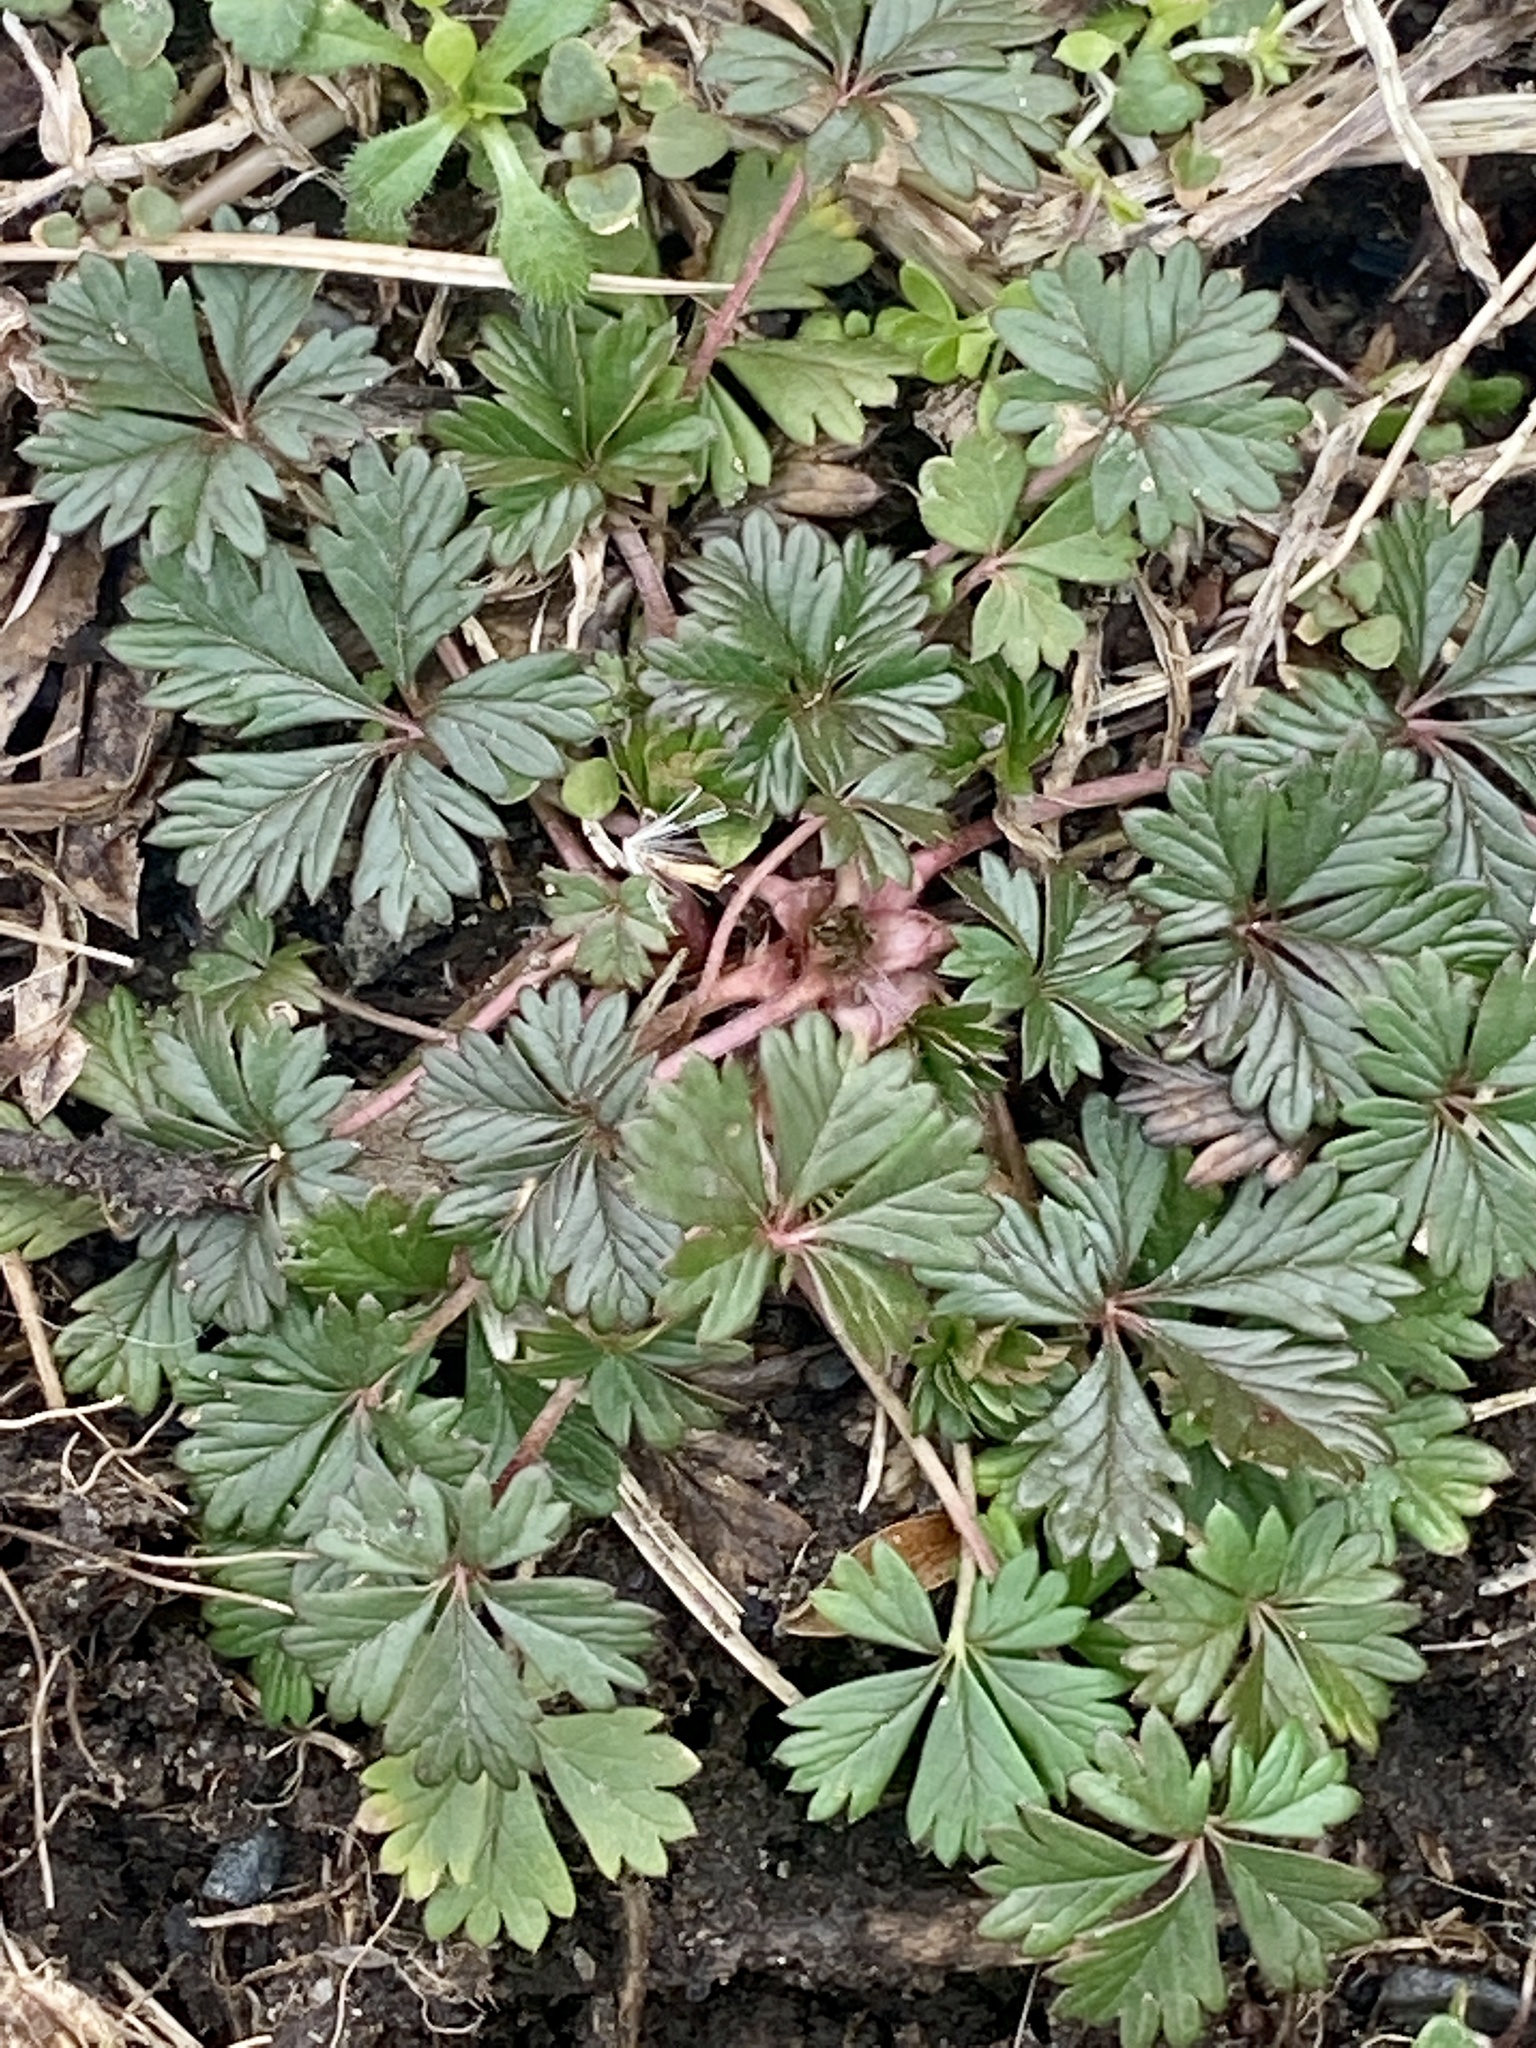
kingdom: Plantae
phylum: Tracheophyta
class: Magnoliopsida
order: Rosales
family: Rosaceae
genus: Potentilla
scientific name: Potentilla argentea
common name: Hoary cinquefoil
